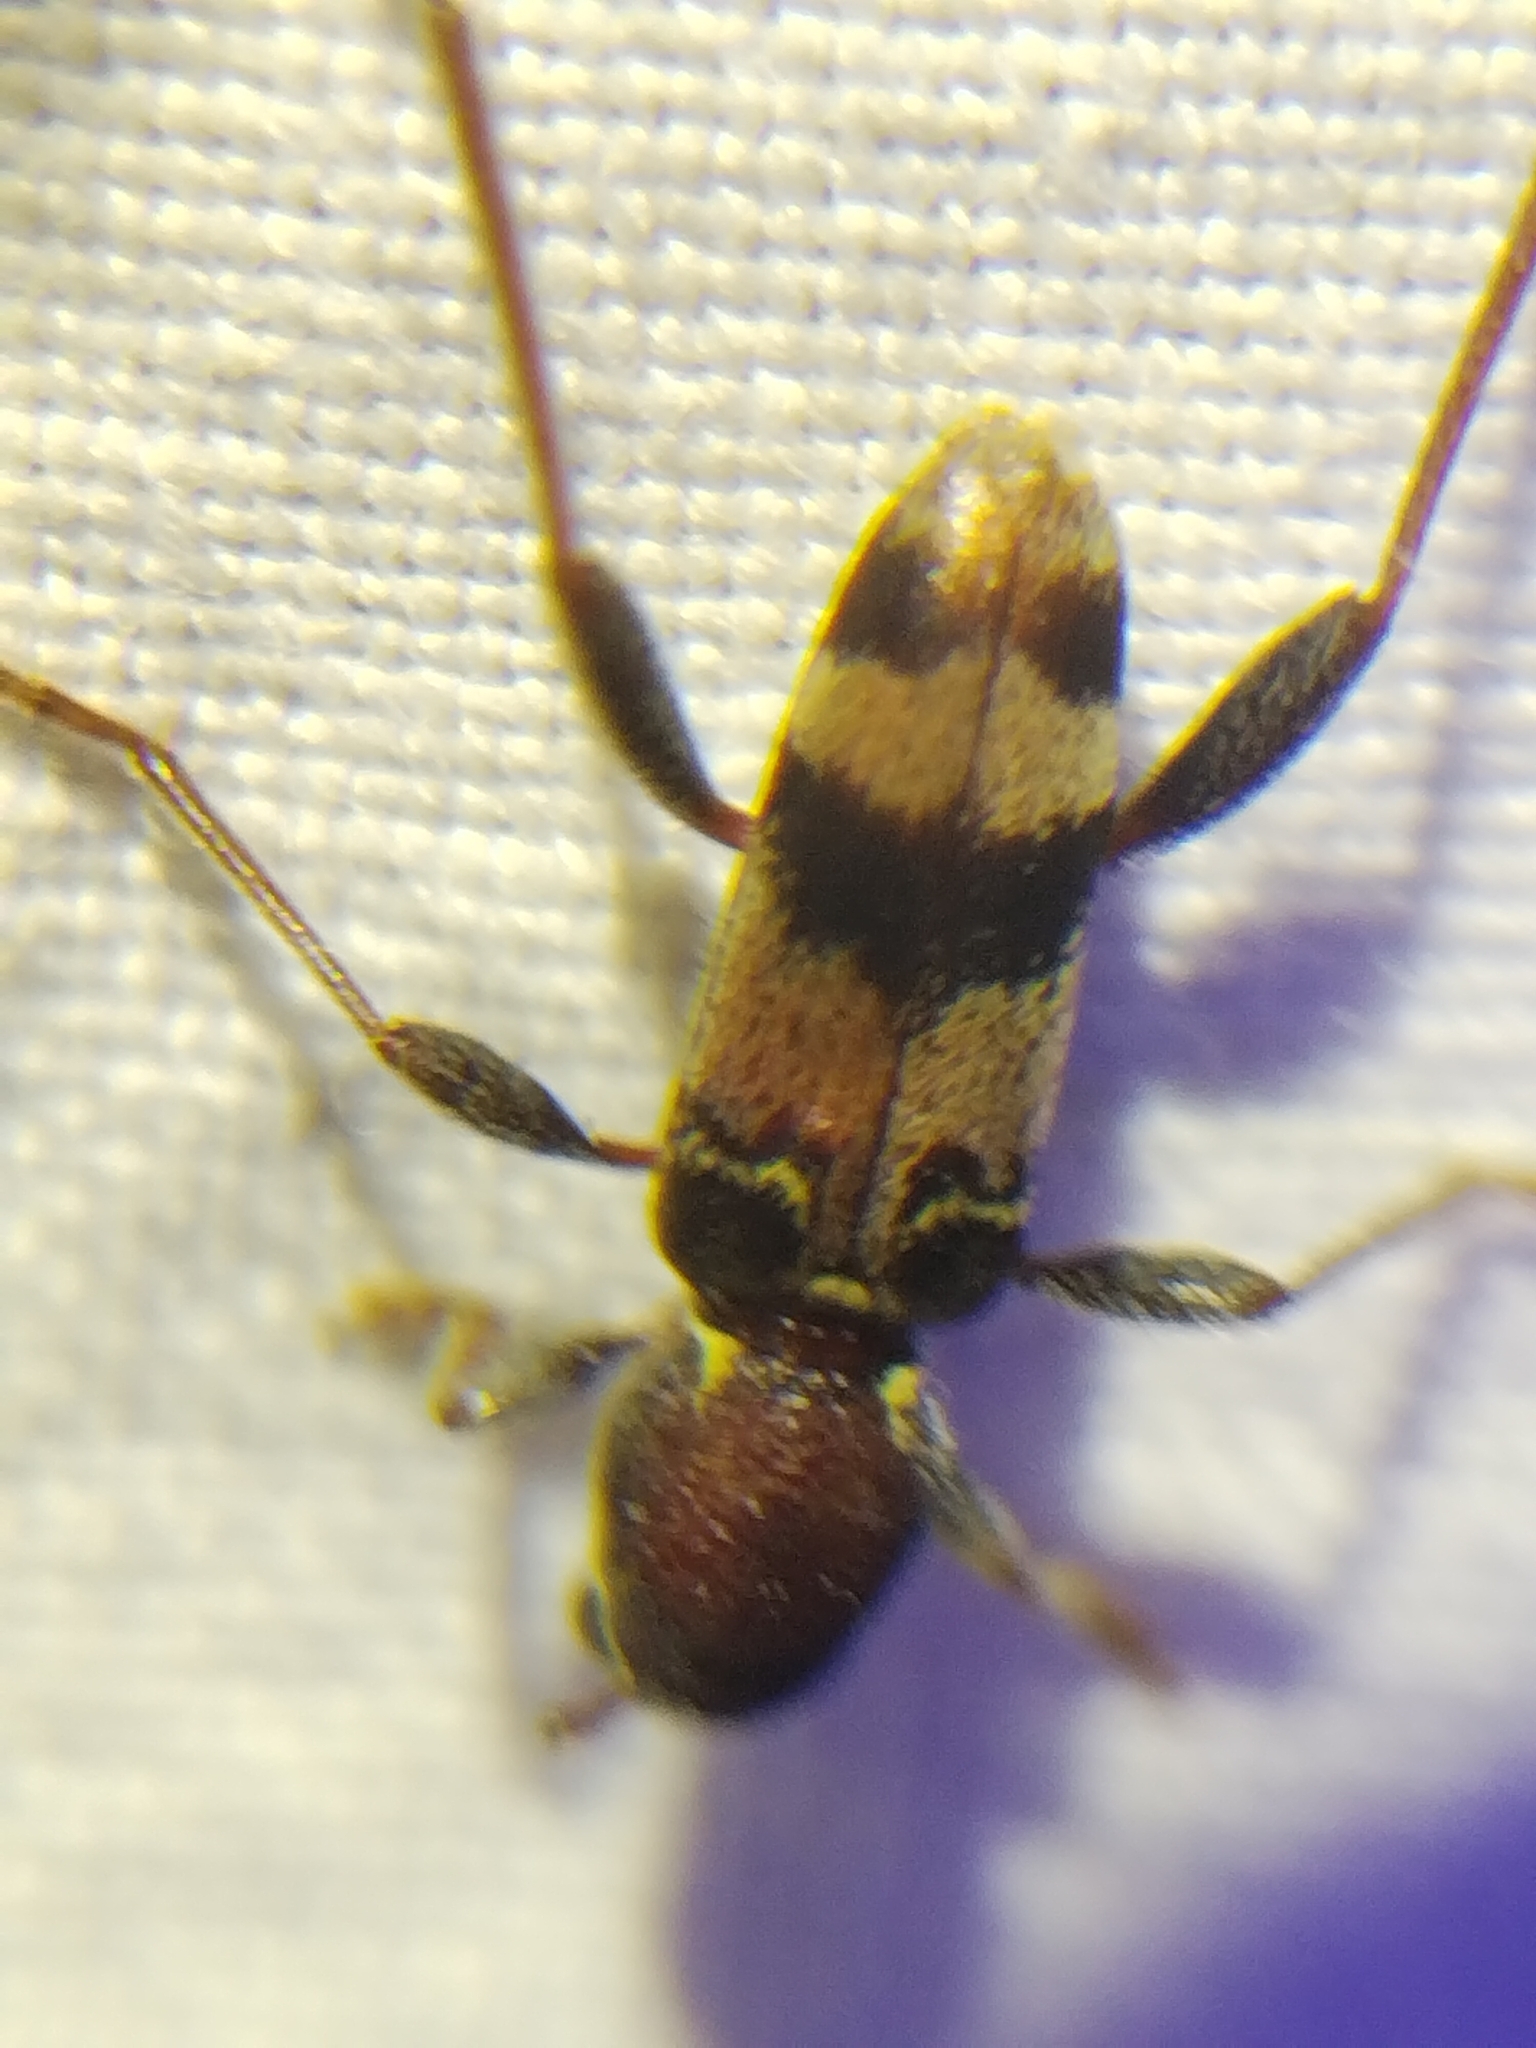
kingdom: Animalia
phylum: Arthropoda
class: Insecta
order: Coleoptera
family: Cerambycidae
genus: Xylotrechus
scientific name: Xylotrechus colonus
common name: Long-horned beetle
